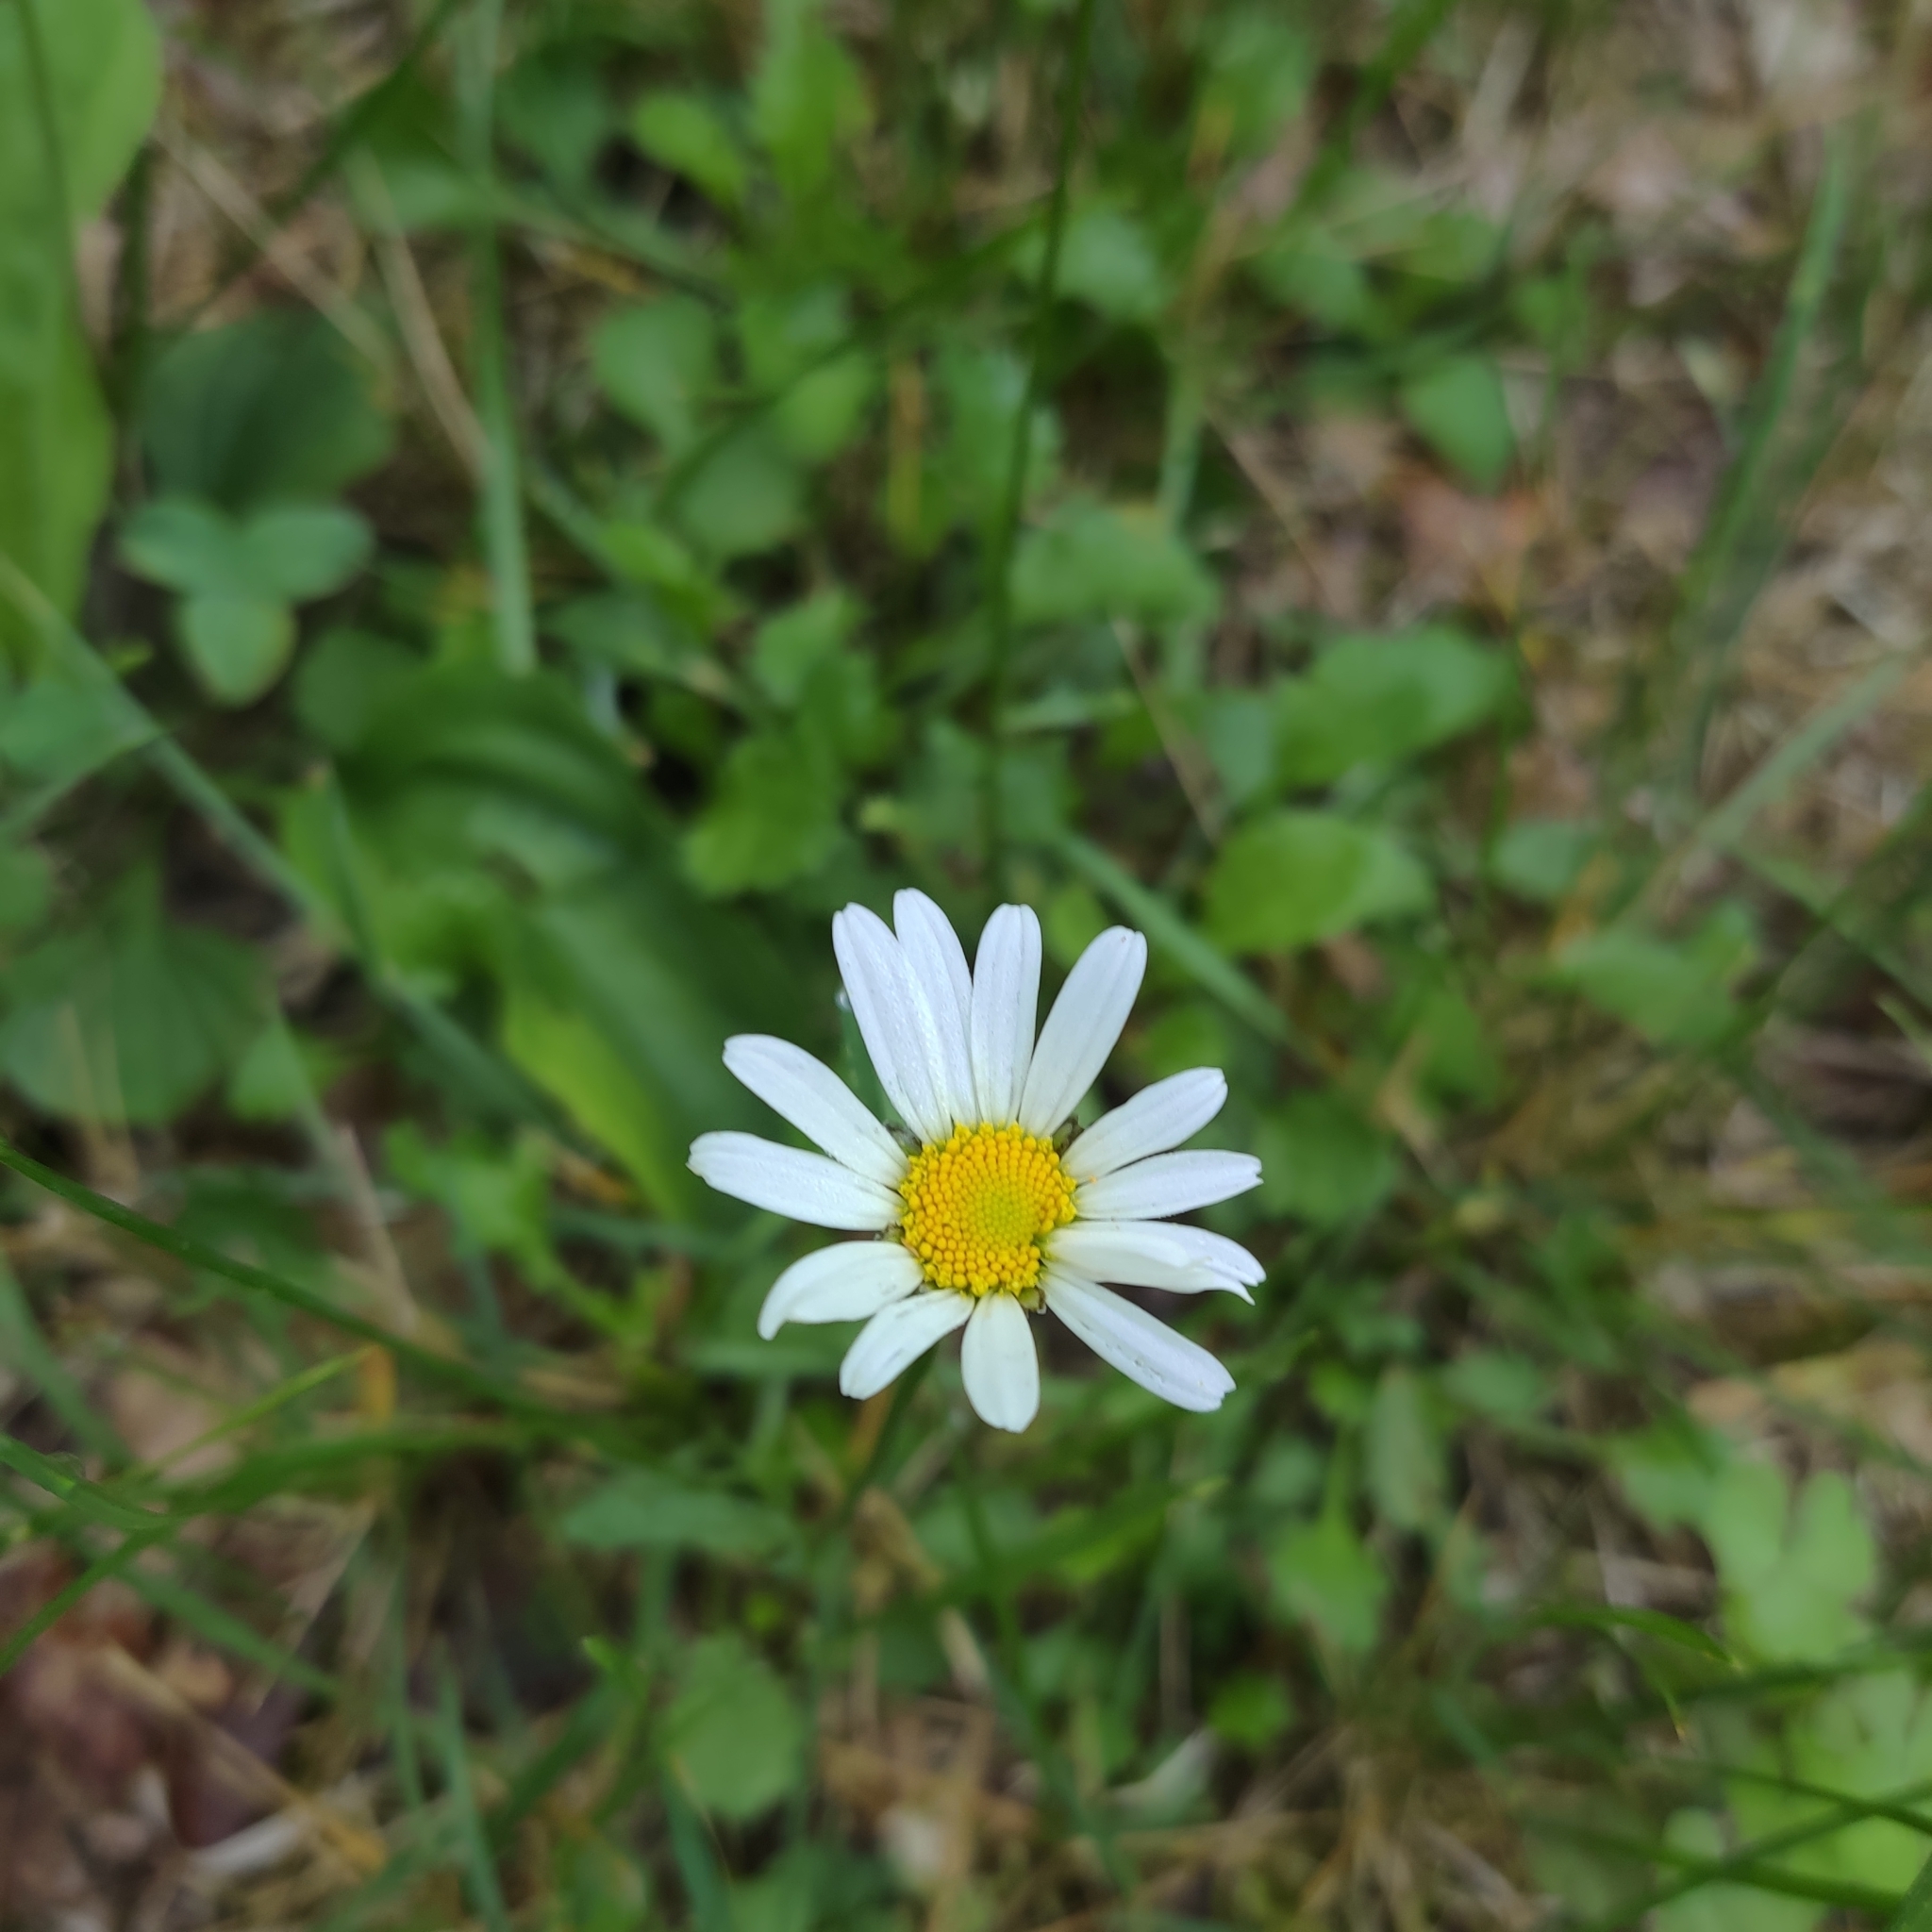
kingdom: Plantae
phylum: Tracheophyta
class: Magnoliopsida
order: Asterales
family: Asteraceae
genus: Leucanthemum
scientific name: Leucanthemum vulgare
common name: Oxeye daisy
